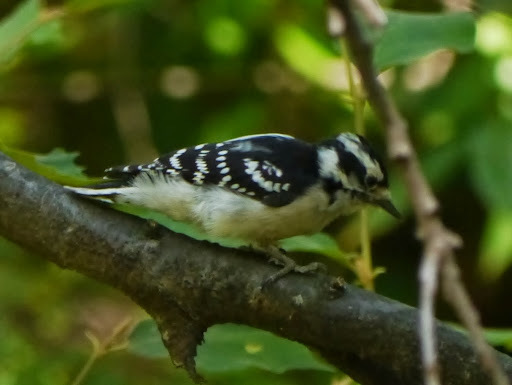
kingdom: Animalia
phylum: Chordata
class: Aves
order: Piciformes
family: Picidae
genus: Dryobates
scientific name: Dryobates pubescens
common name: Downy woodpecker
